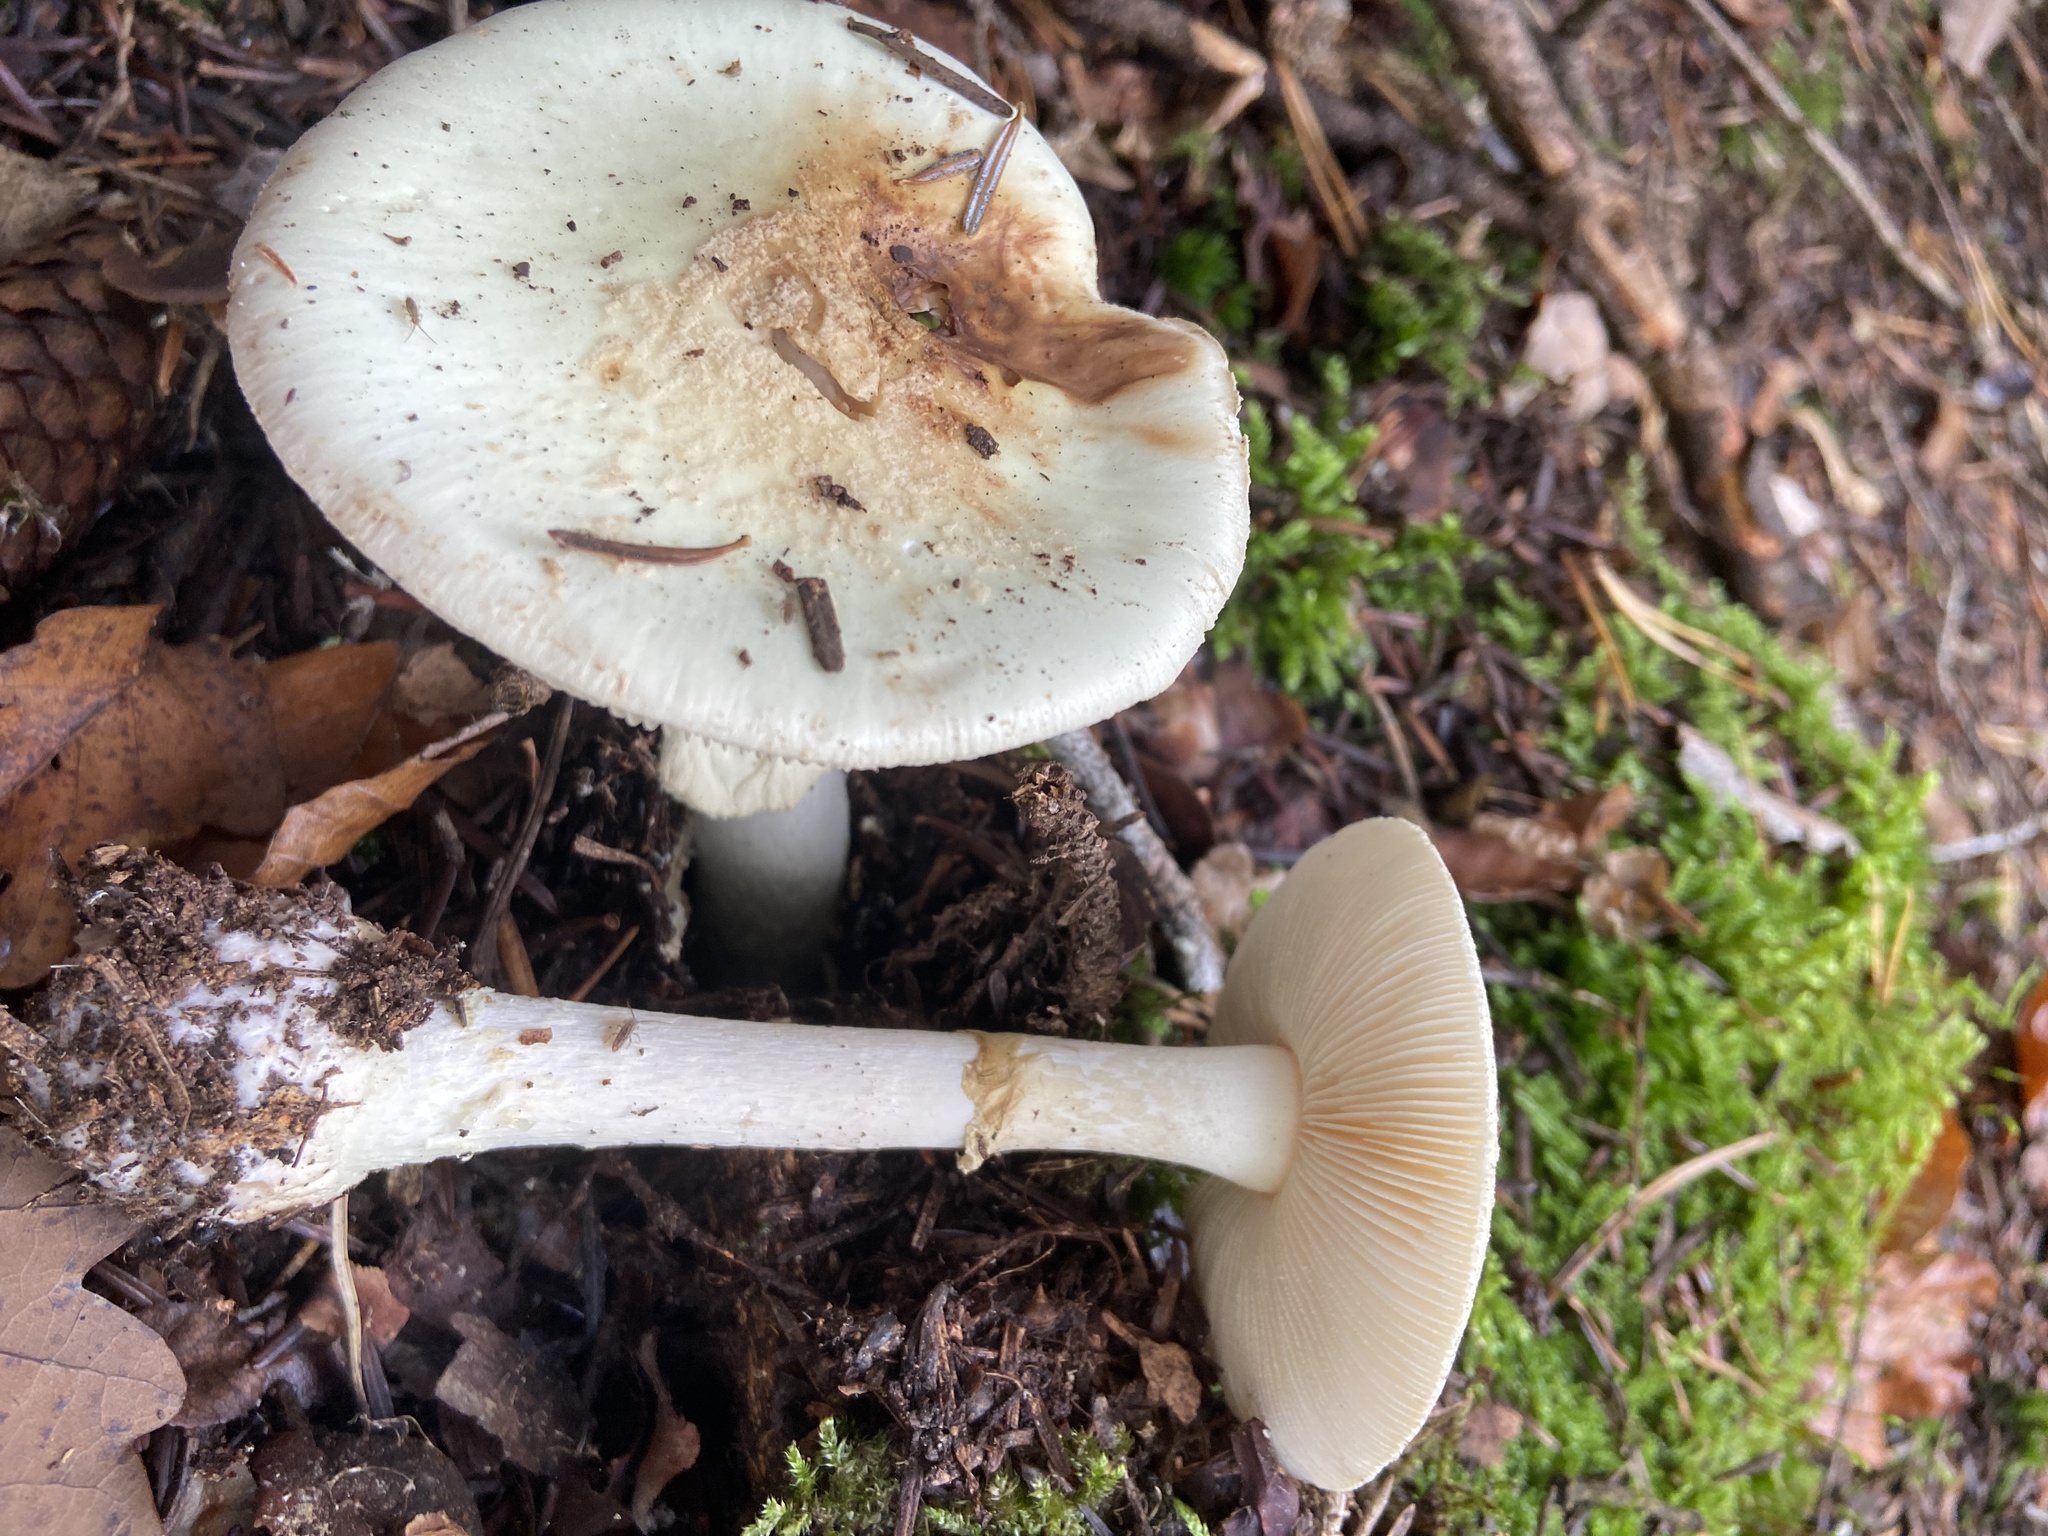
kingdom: Fungi
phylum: Basidiomycota
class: Agaricomycetes
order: Agaricales
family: Amanitaceae
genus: Amanita
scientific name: Amanita citrina
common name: False death-cap
